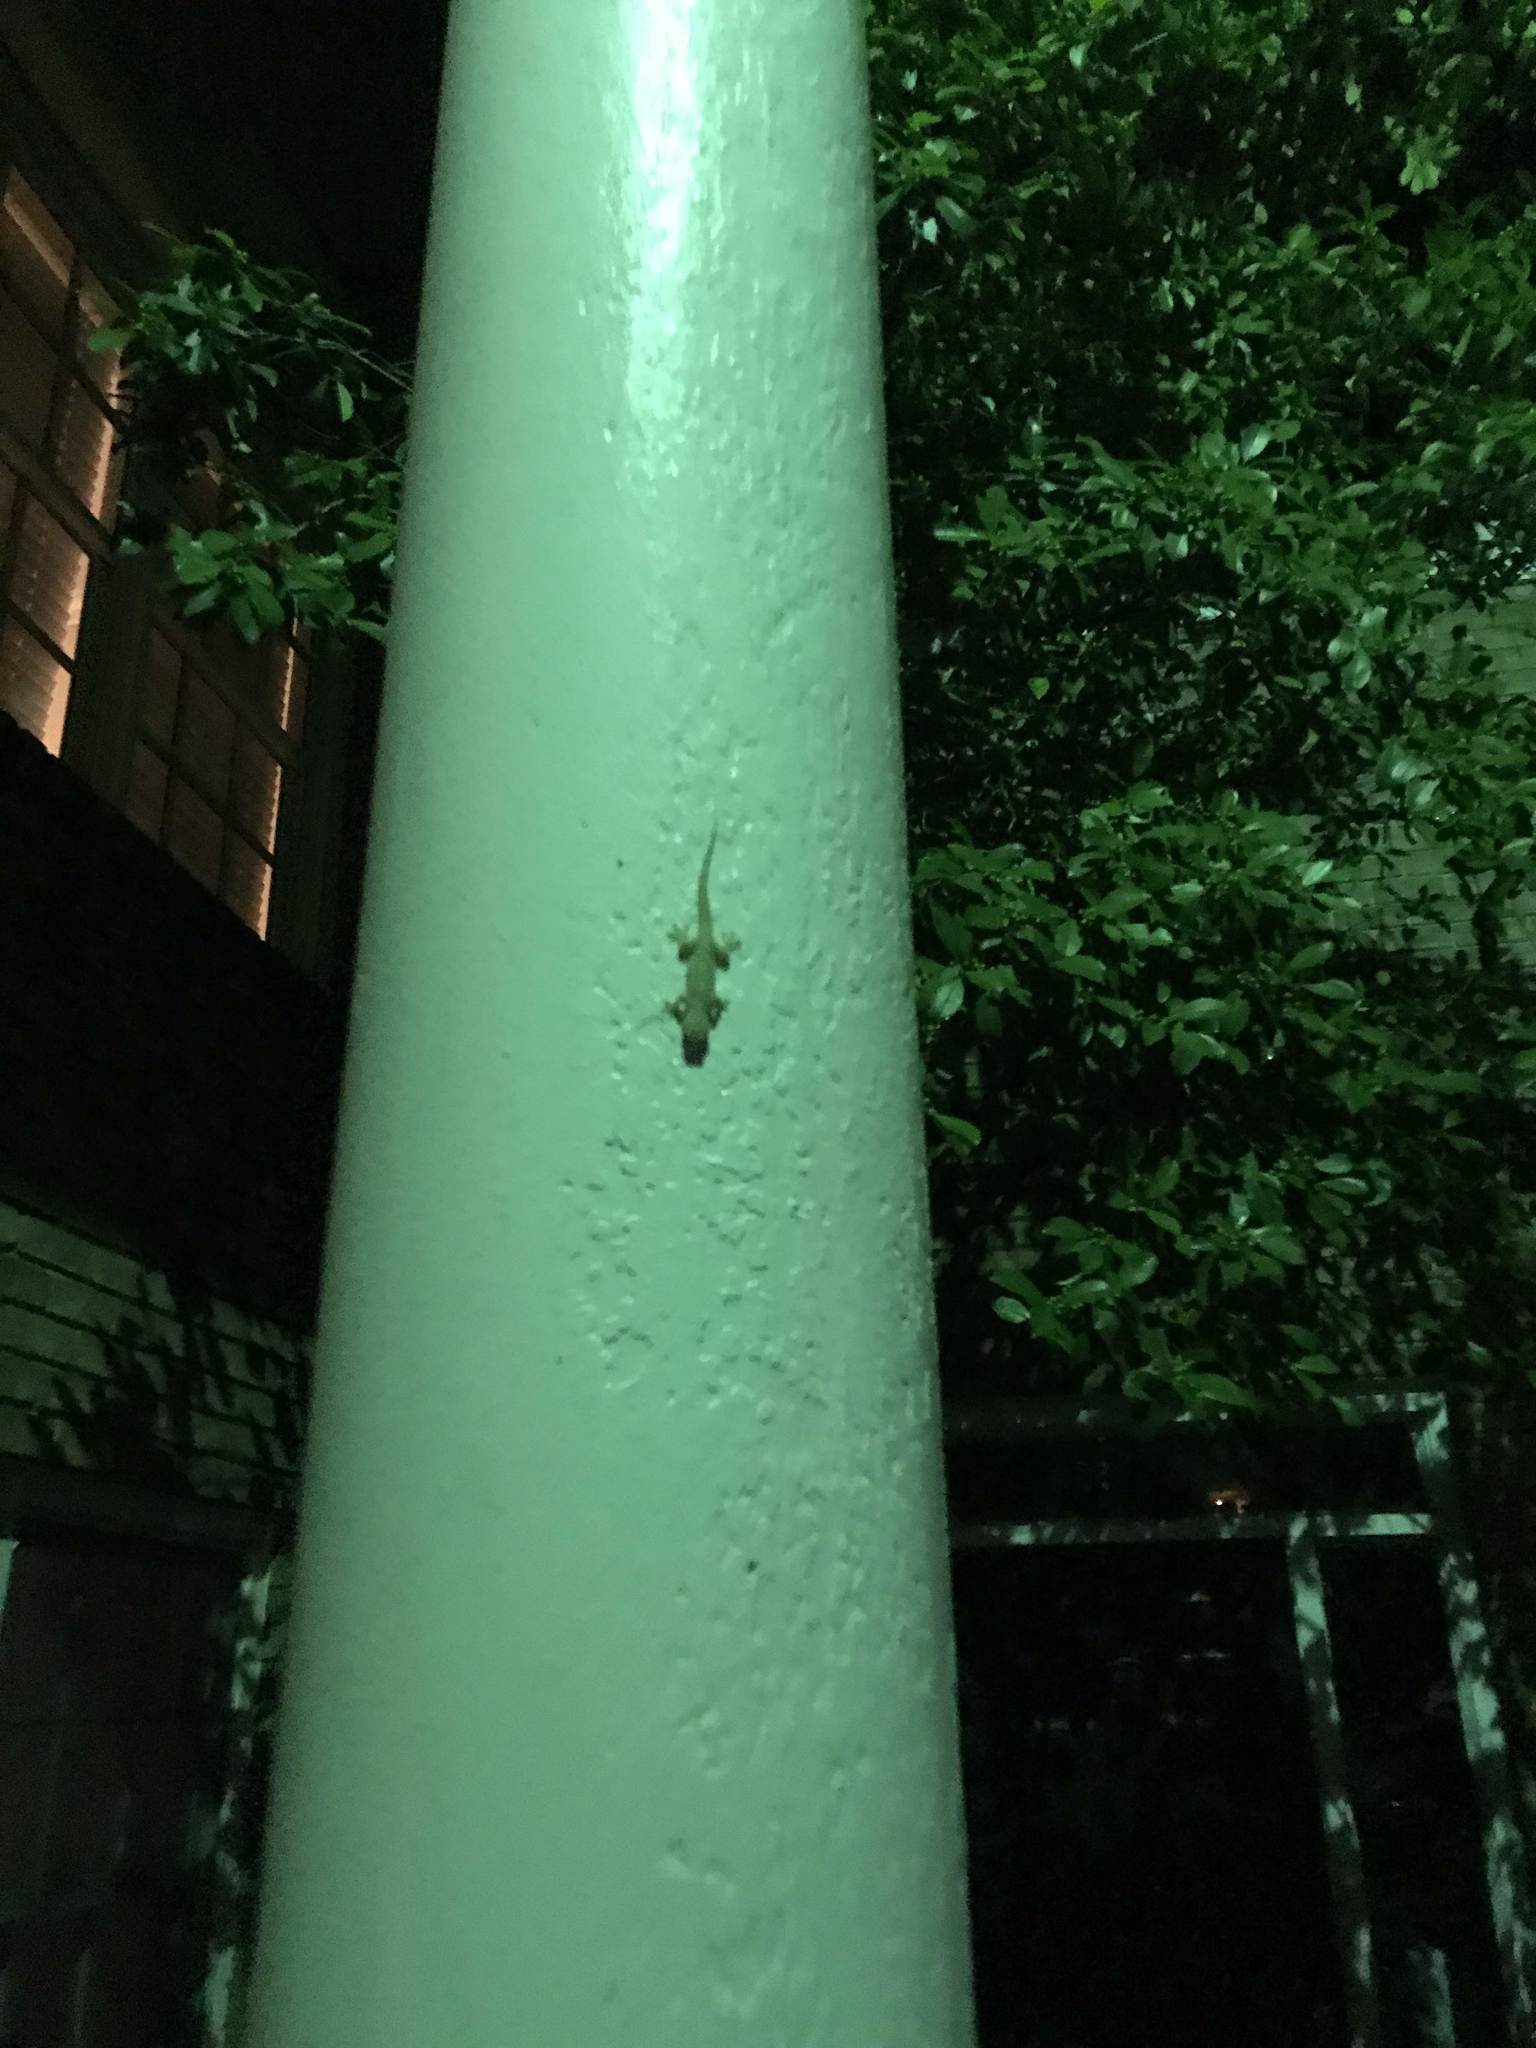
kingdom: Animalia
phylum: Chordata
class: Squamata
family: Gekkonidae
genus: Hemidactylus
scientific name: Hemidactylus turcicus
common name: Turkish gecko
